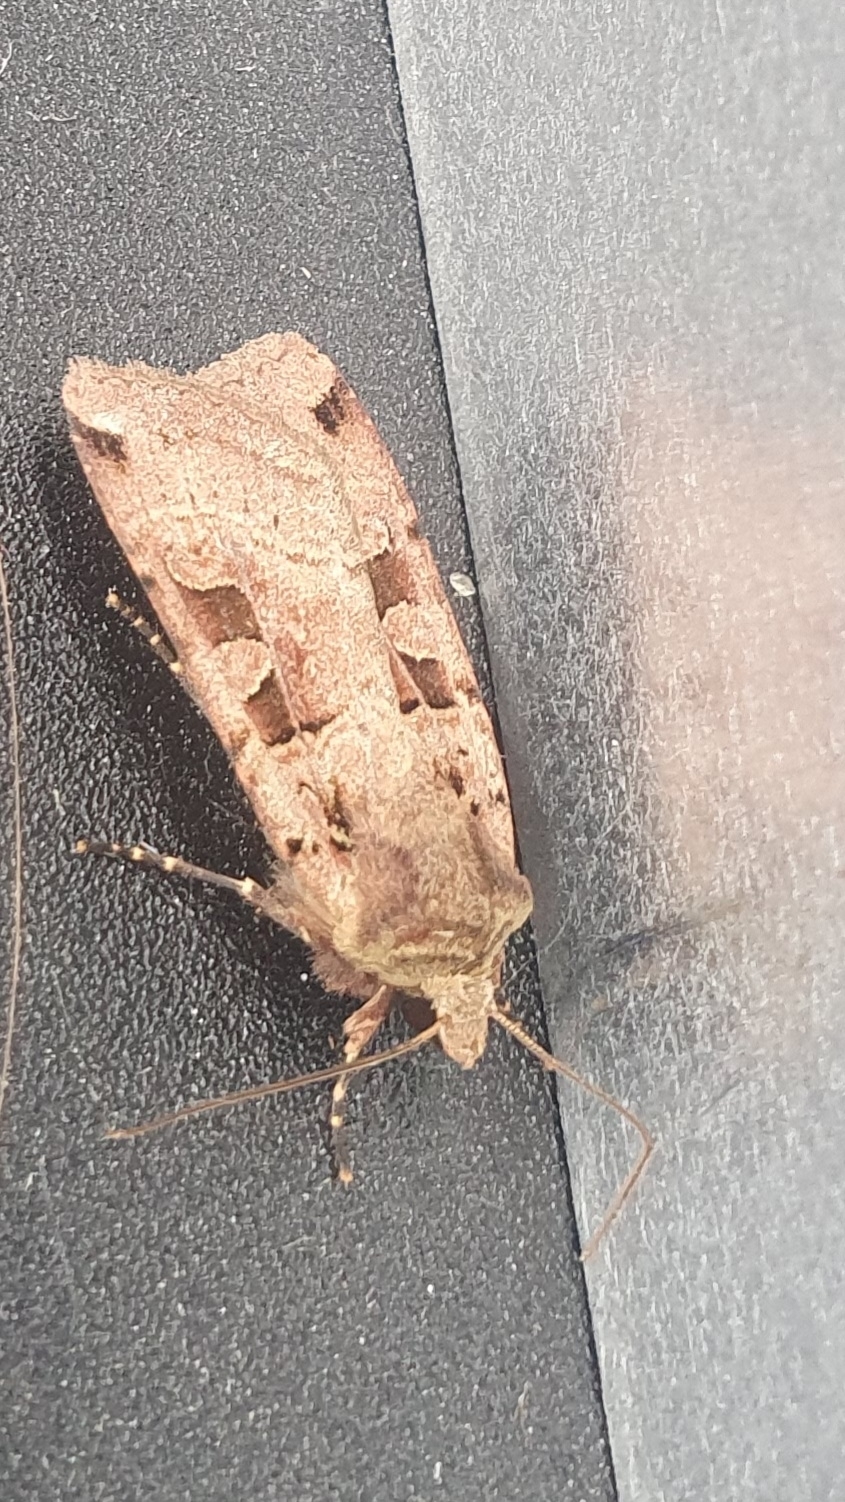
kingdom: Animalia
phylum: Arthropoda
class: Insecta
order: Lepidoptera
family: Noctuidae
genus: Xestia
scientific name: Xestia triangulum
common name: Double square-spot
